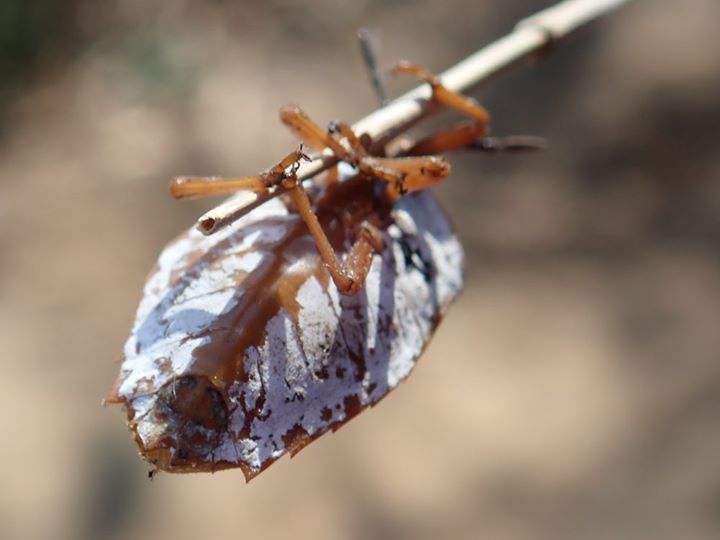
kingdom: Animalia
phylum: Arthropoda
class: Insecta
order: Hemiptera
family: Tessaratomidae
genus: Tessaratoma
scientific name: Tessaratoma papillosa
